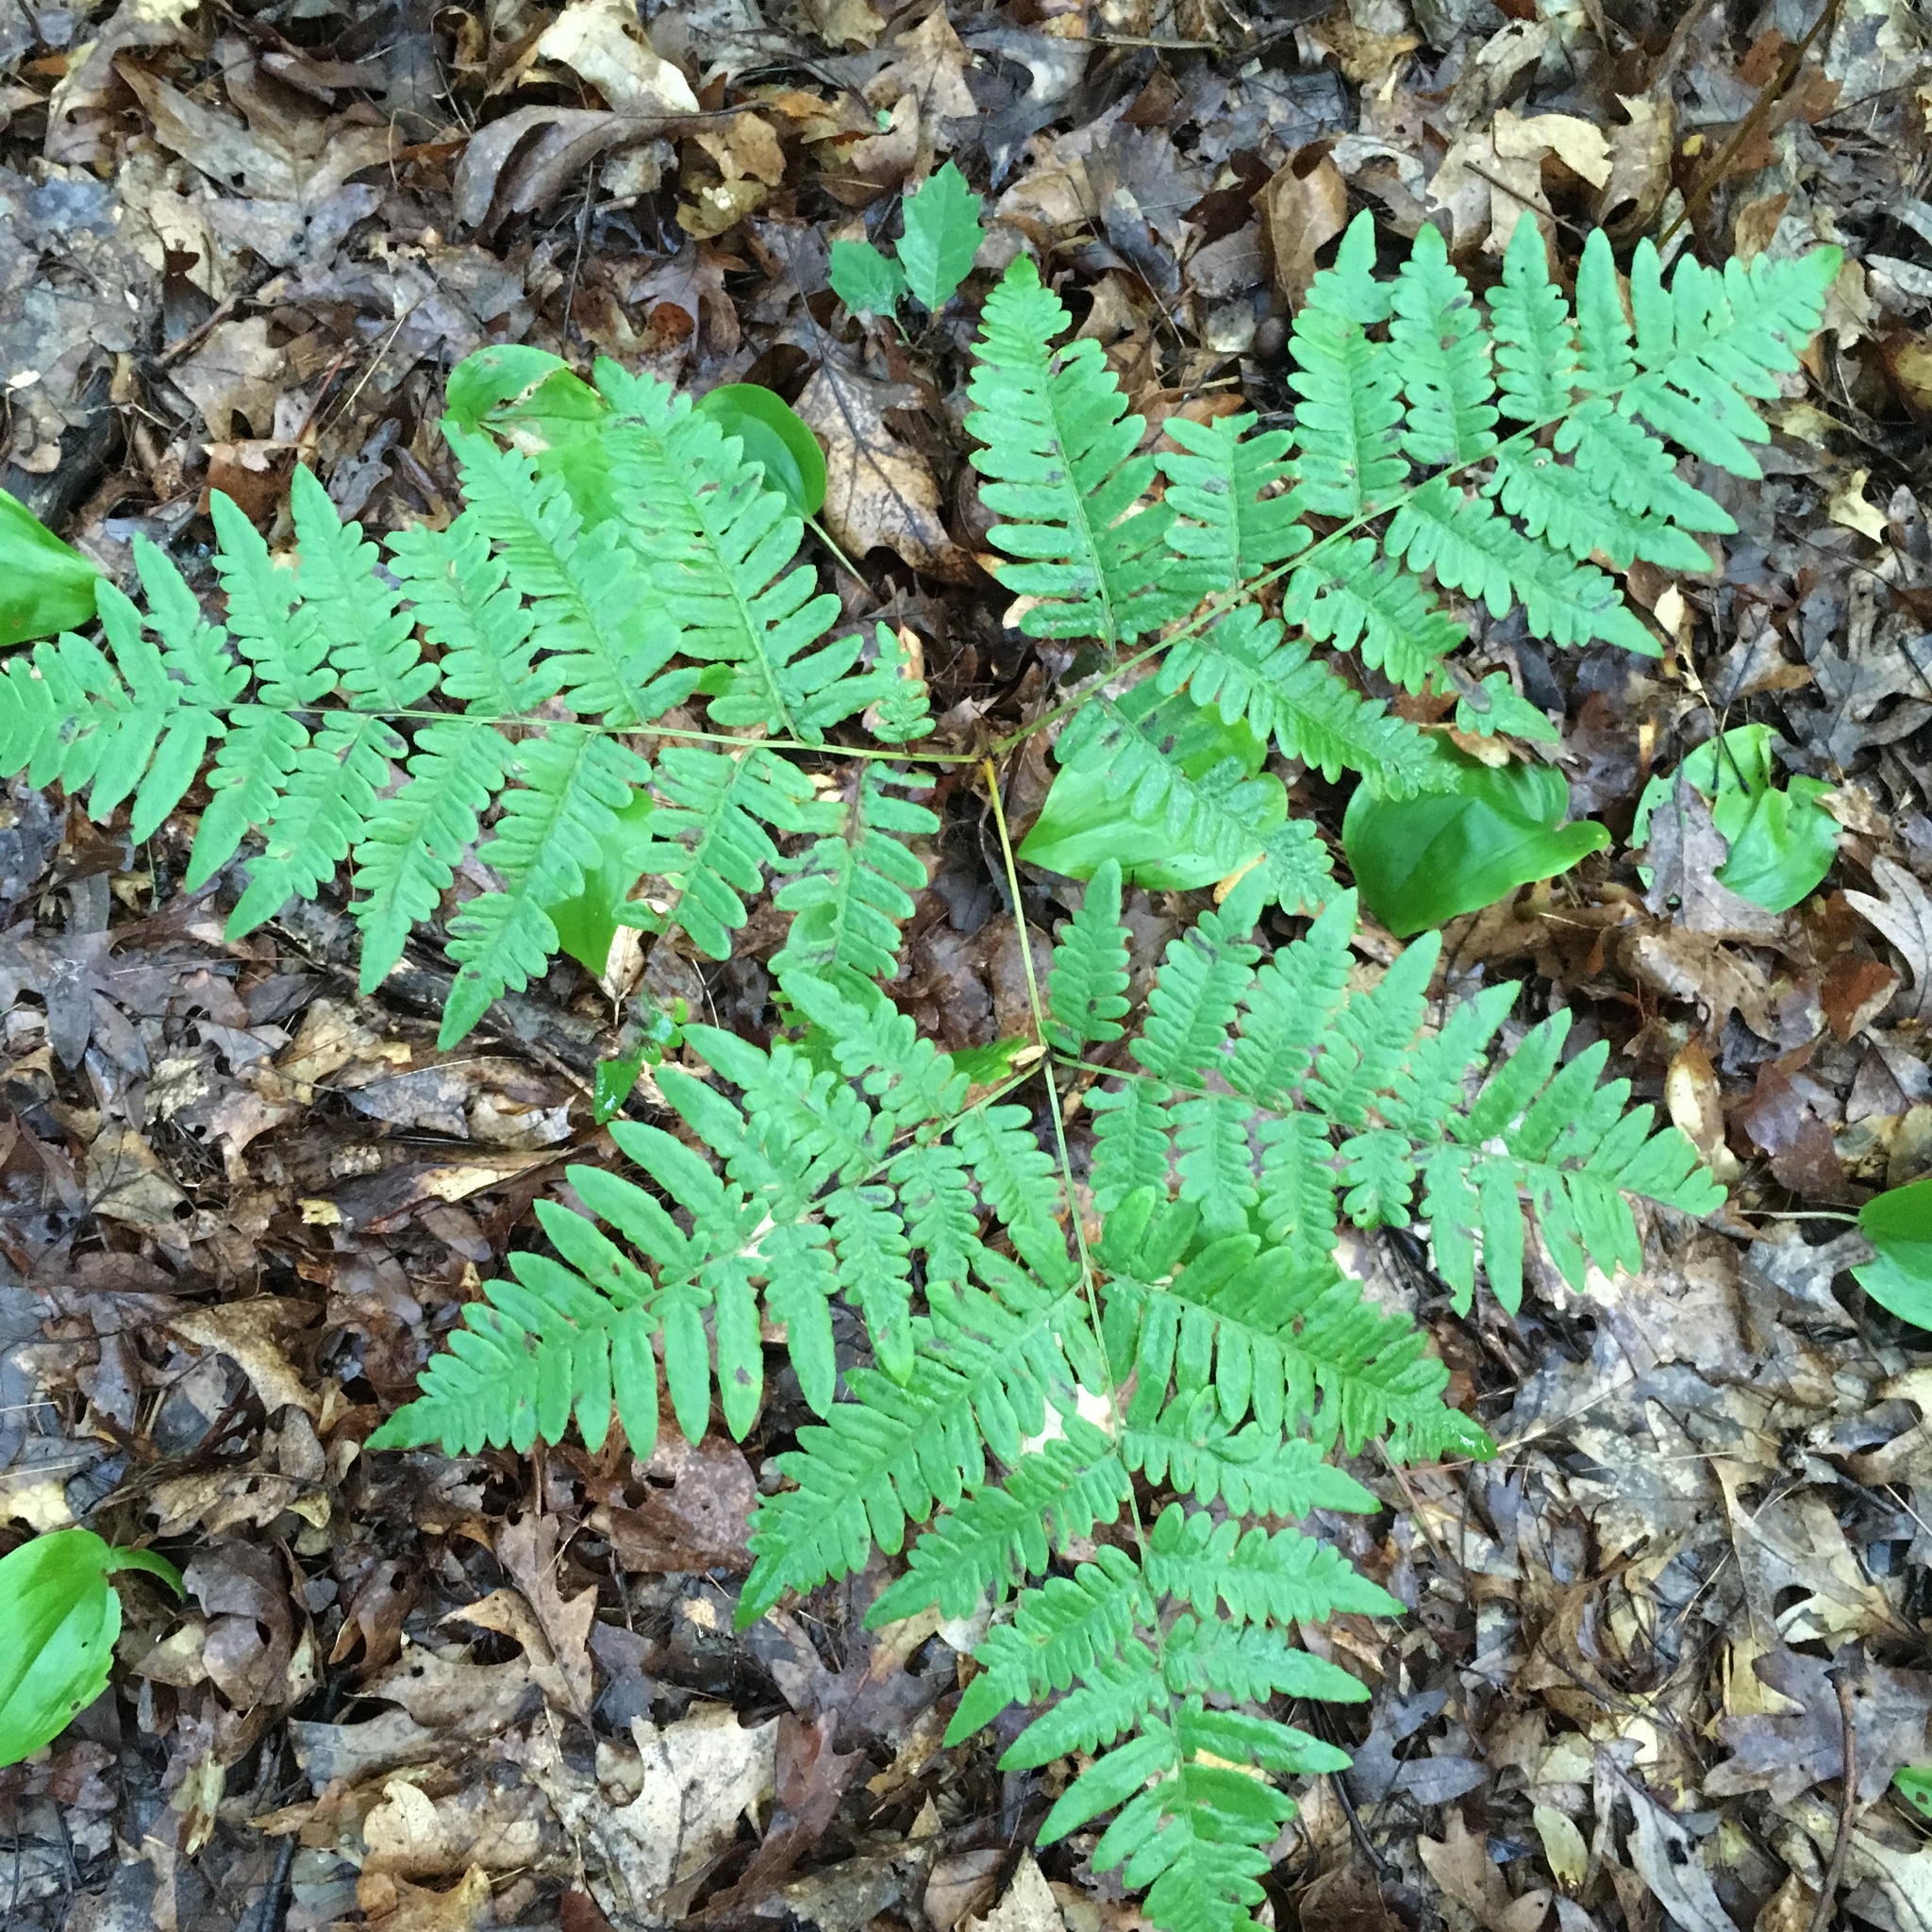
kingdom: Plantae
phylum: Tracheophyta
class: Polypodiopsida
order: Polypodiales
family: Dennstaedtiaceae
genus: Pteridium
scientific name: Pteridium aquilinum
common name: Bracken
